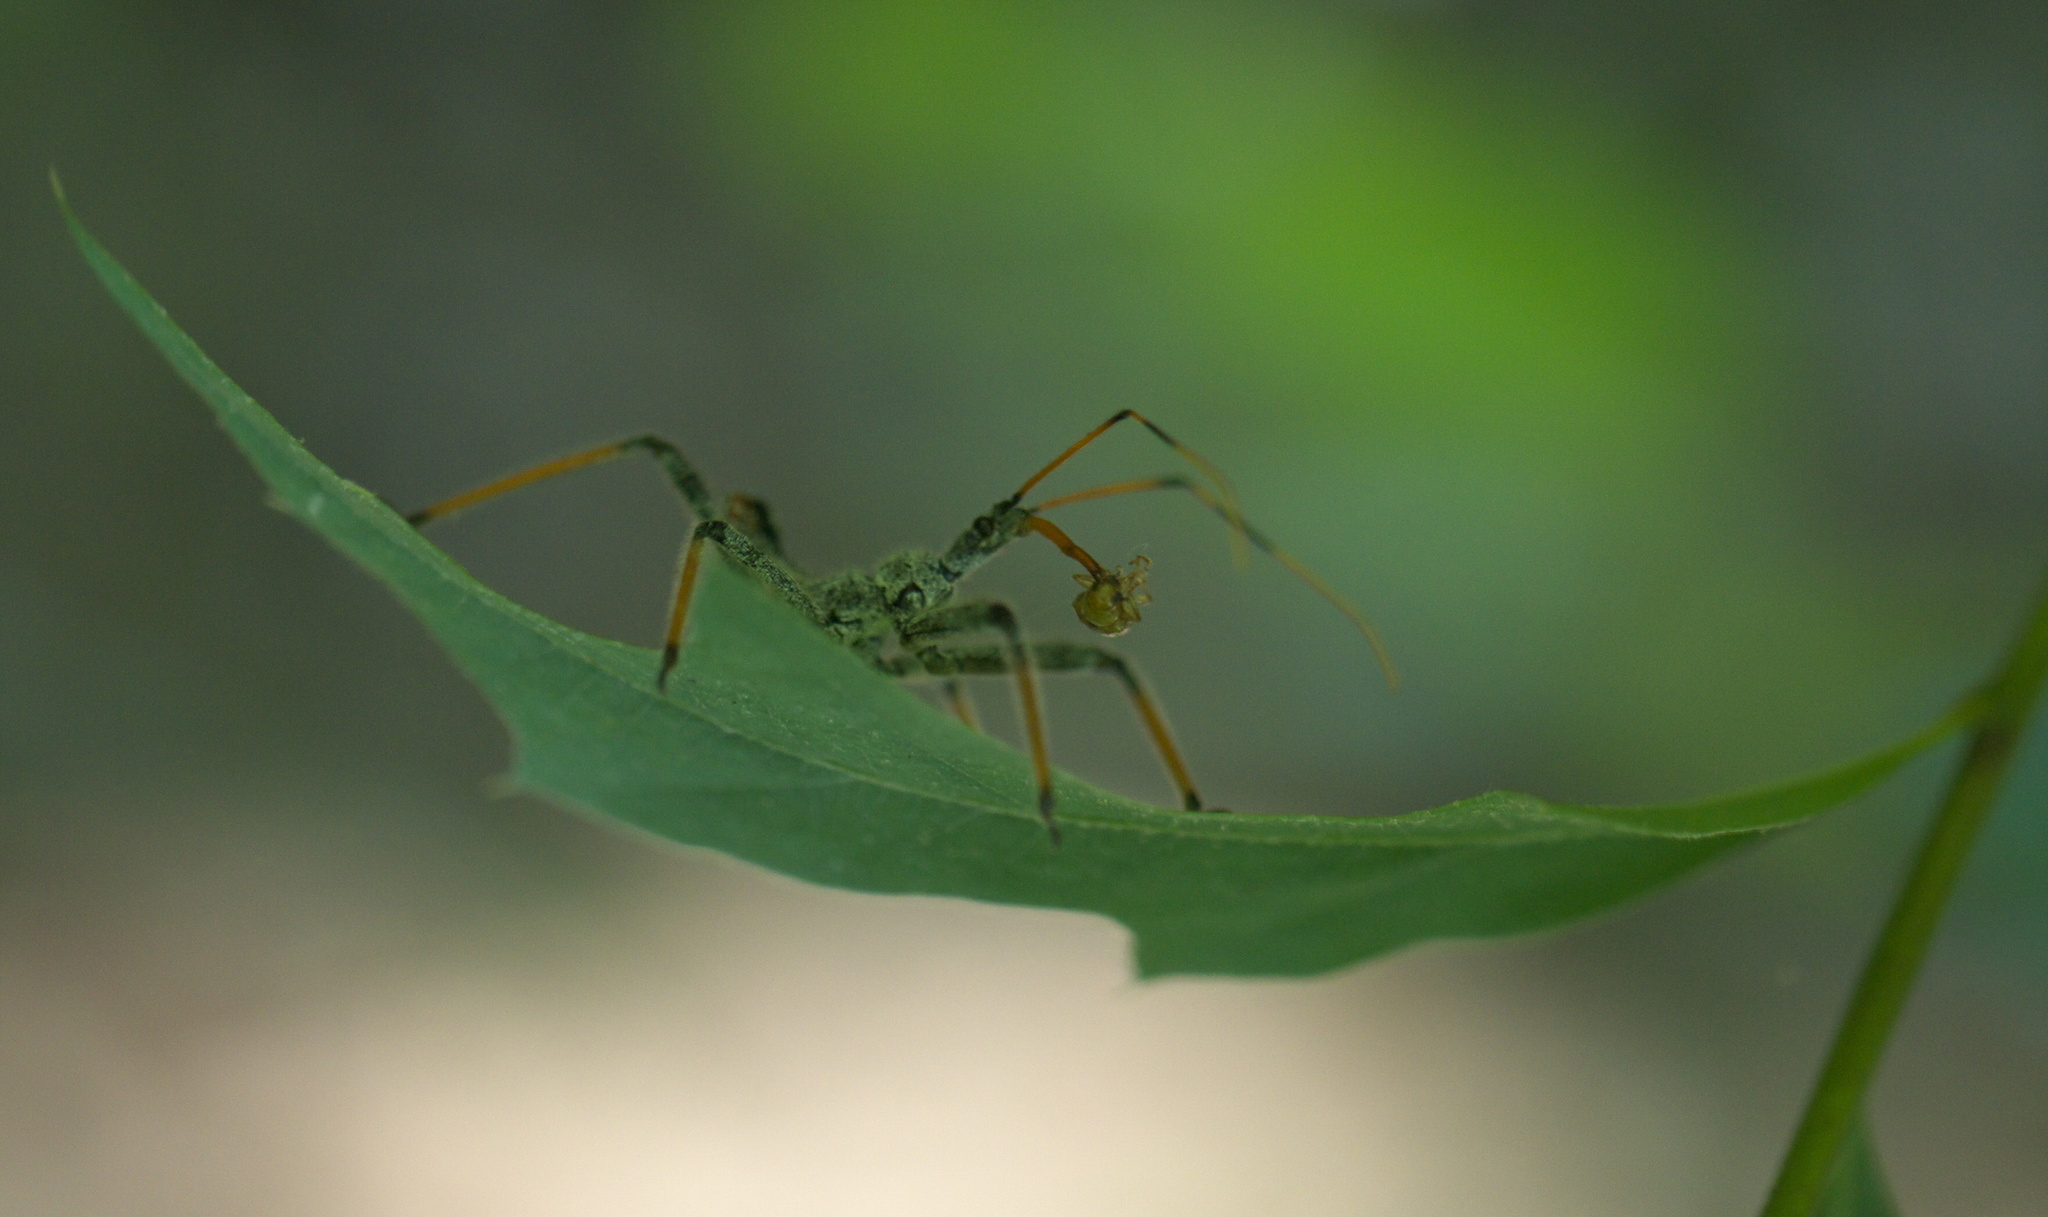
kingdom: Animalia
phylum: Arthropoda
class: Insecta
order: Hemiptera
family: Reduviidae
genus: Arilus
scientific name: Arilus cristatus
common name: North american wheel bug
